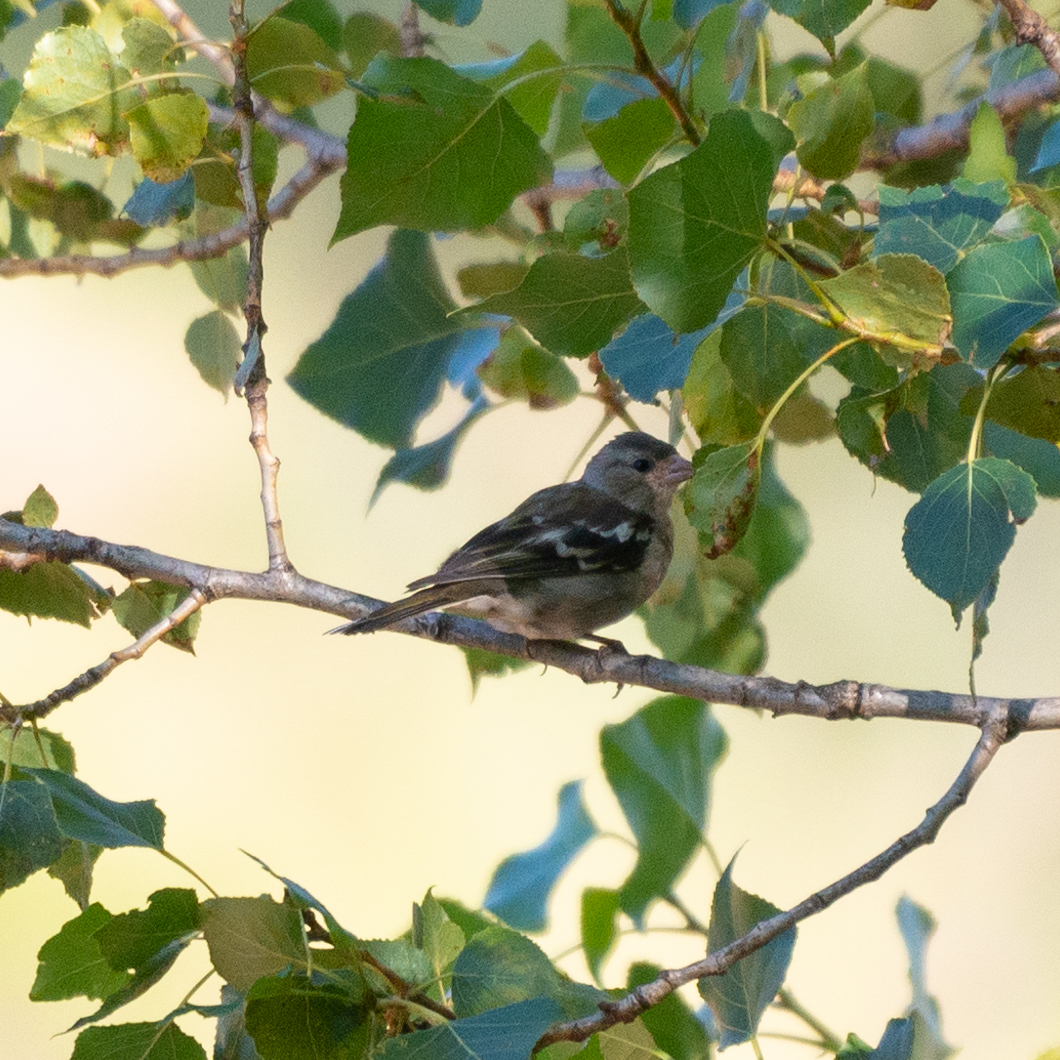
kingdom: Animalia
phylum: Chordata
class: Aves
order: Passeriformes
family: Fringillidae
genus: Fringilla
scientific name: Fringilla coelebs
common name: Common chaffinch
